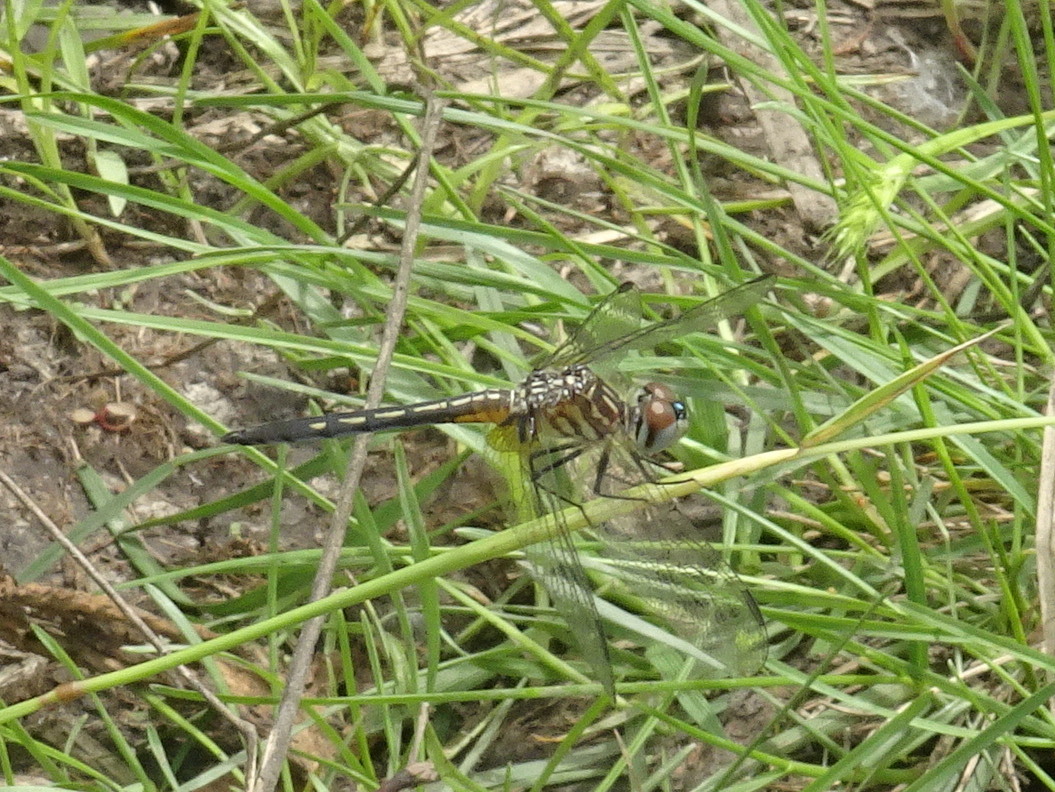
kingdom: Animalia
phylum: Arthropoda
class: Insecta
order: Odonata
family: Libellulidae
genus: Pachydiplax
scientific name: Pachydiplax longipennis
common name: Blue dasher
